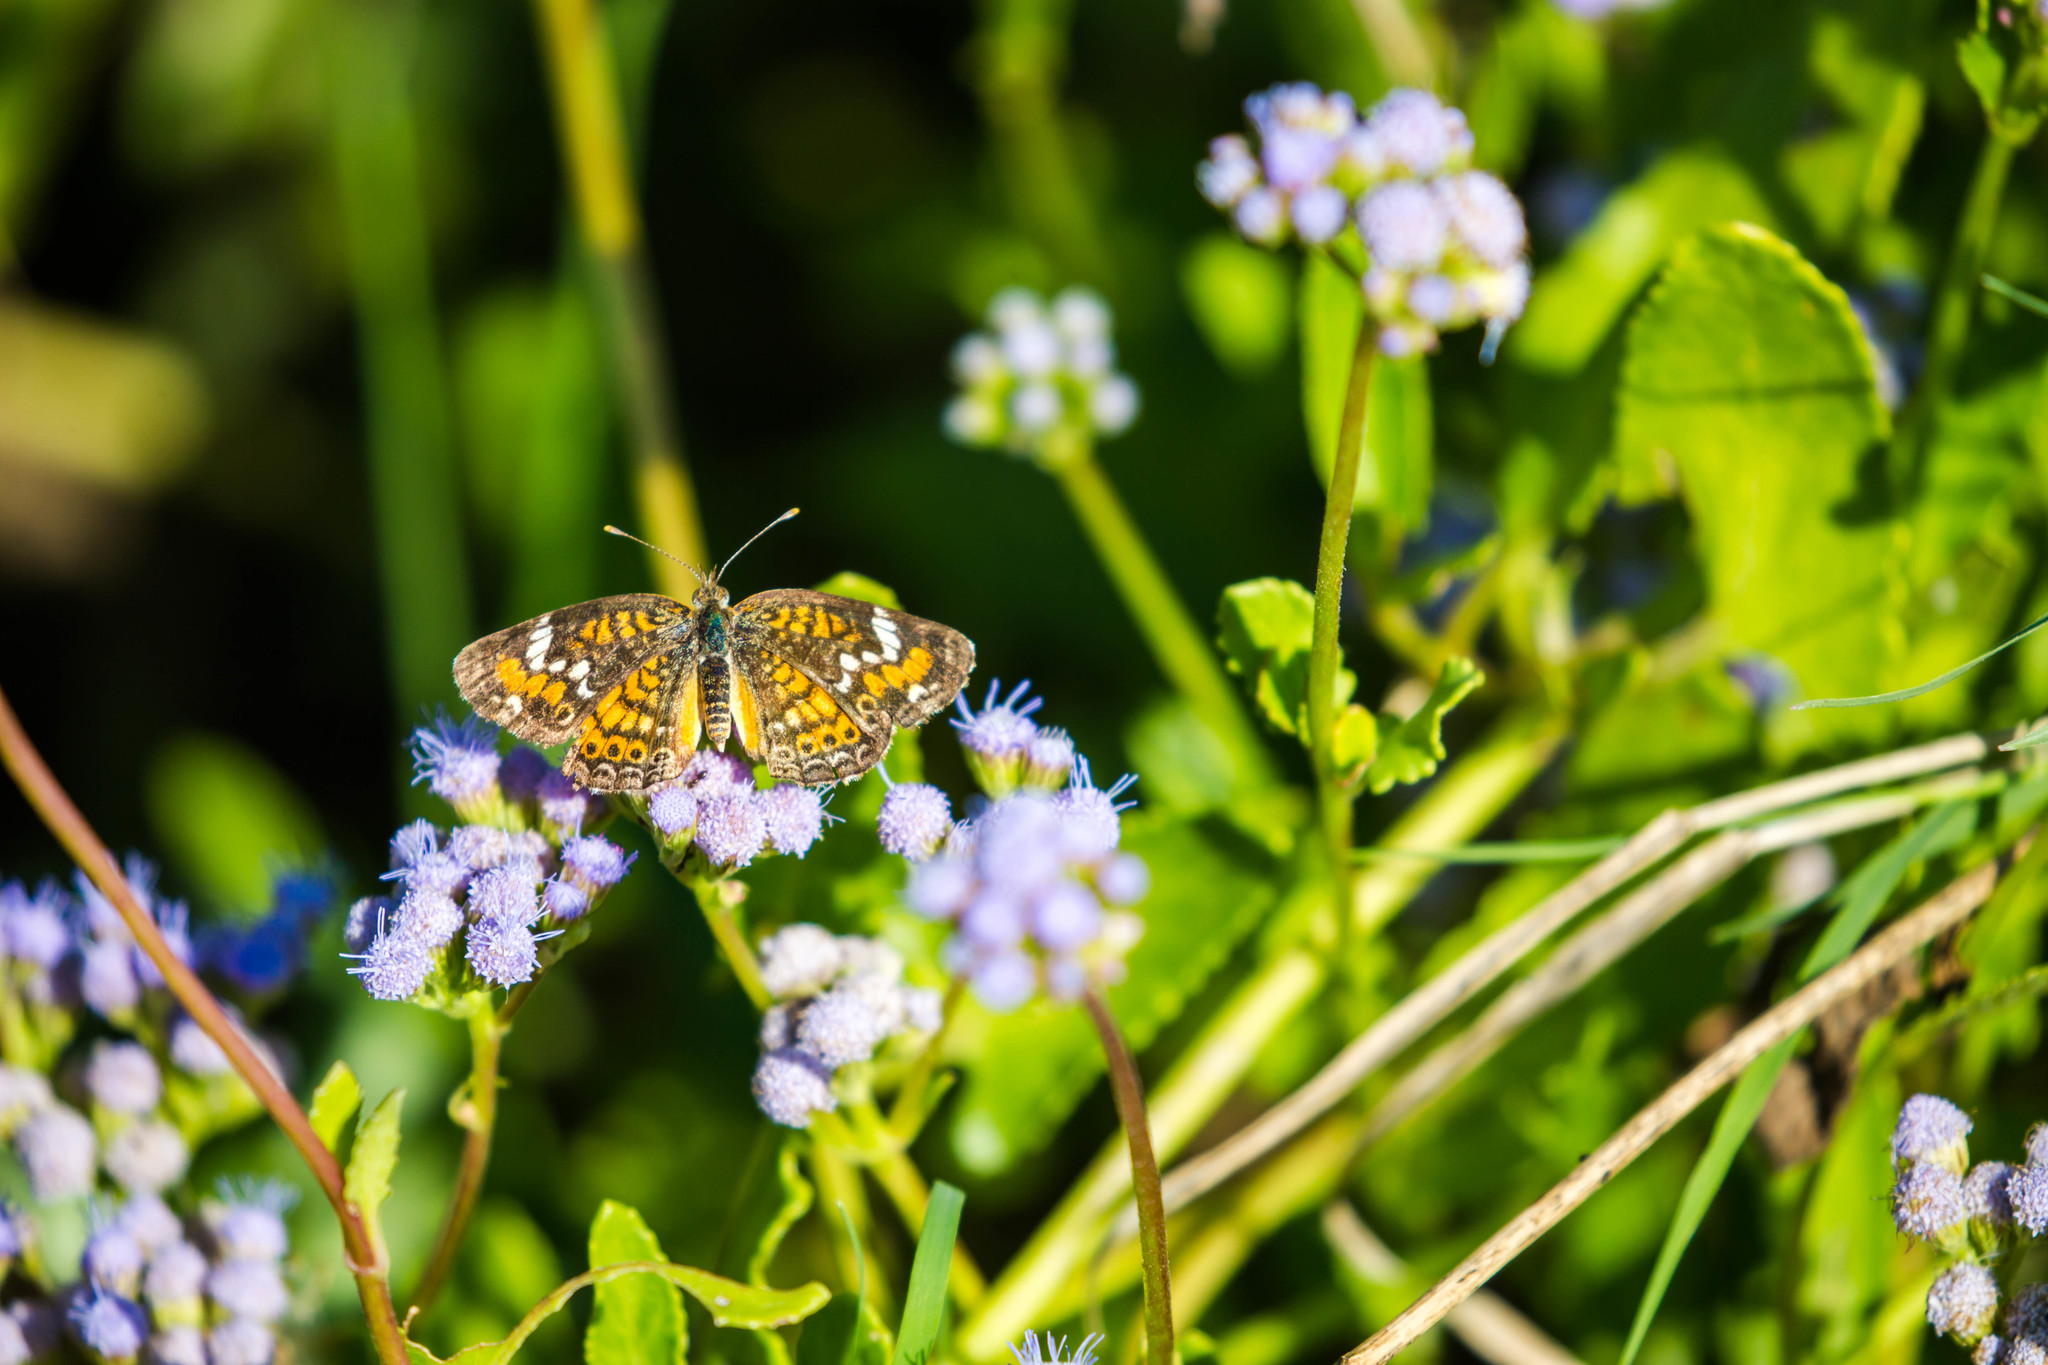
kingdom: Animalia
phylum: Arthropoda
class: Insecta
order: Lepidoptera
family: Nymphalidae
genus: Phyciodes
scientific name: Phyciodes phaon
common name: Phaon crescent
